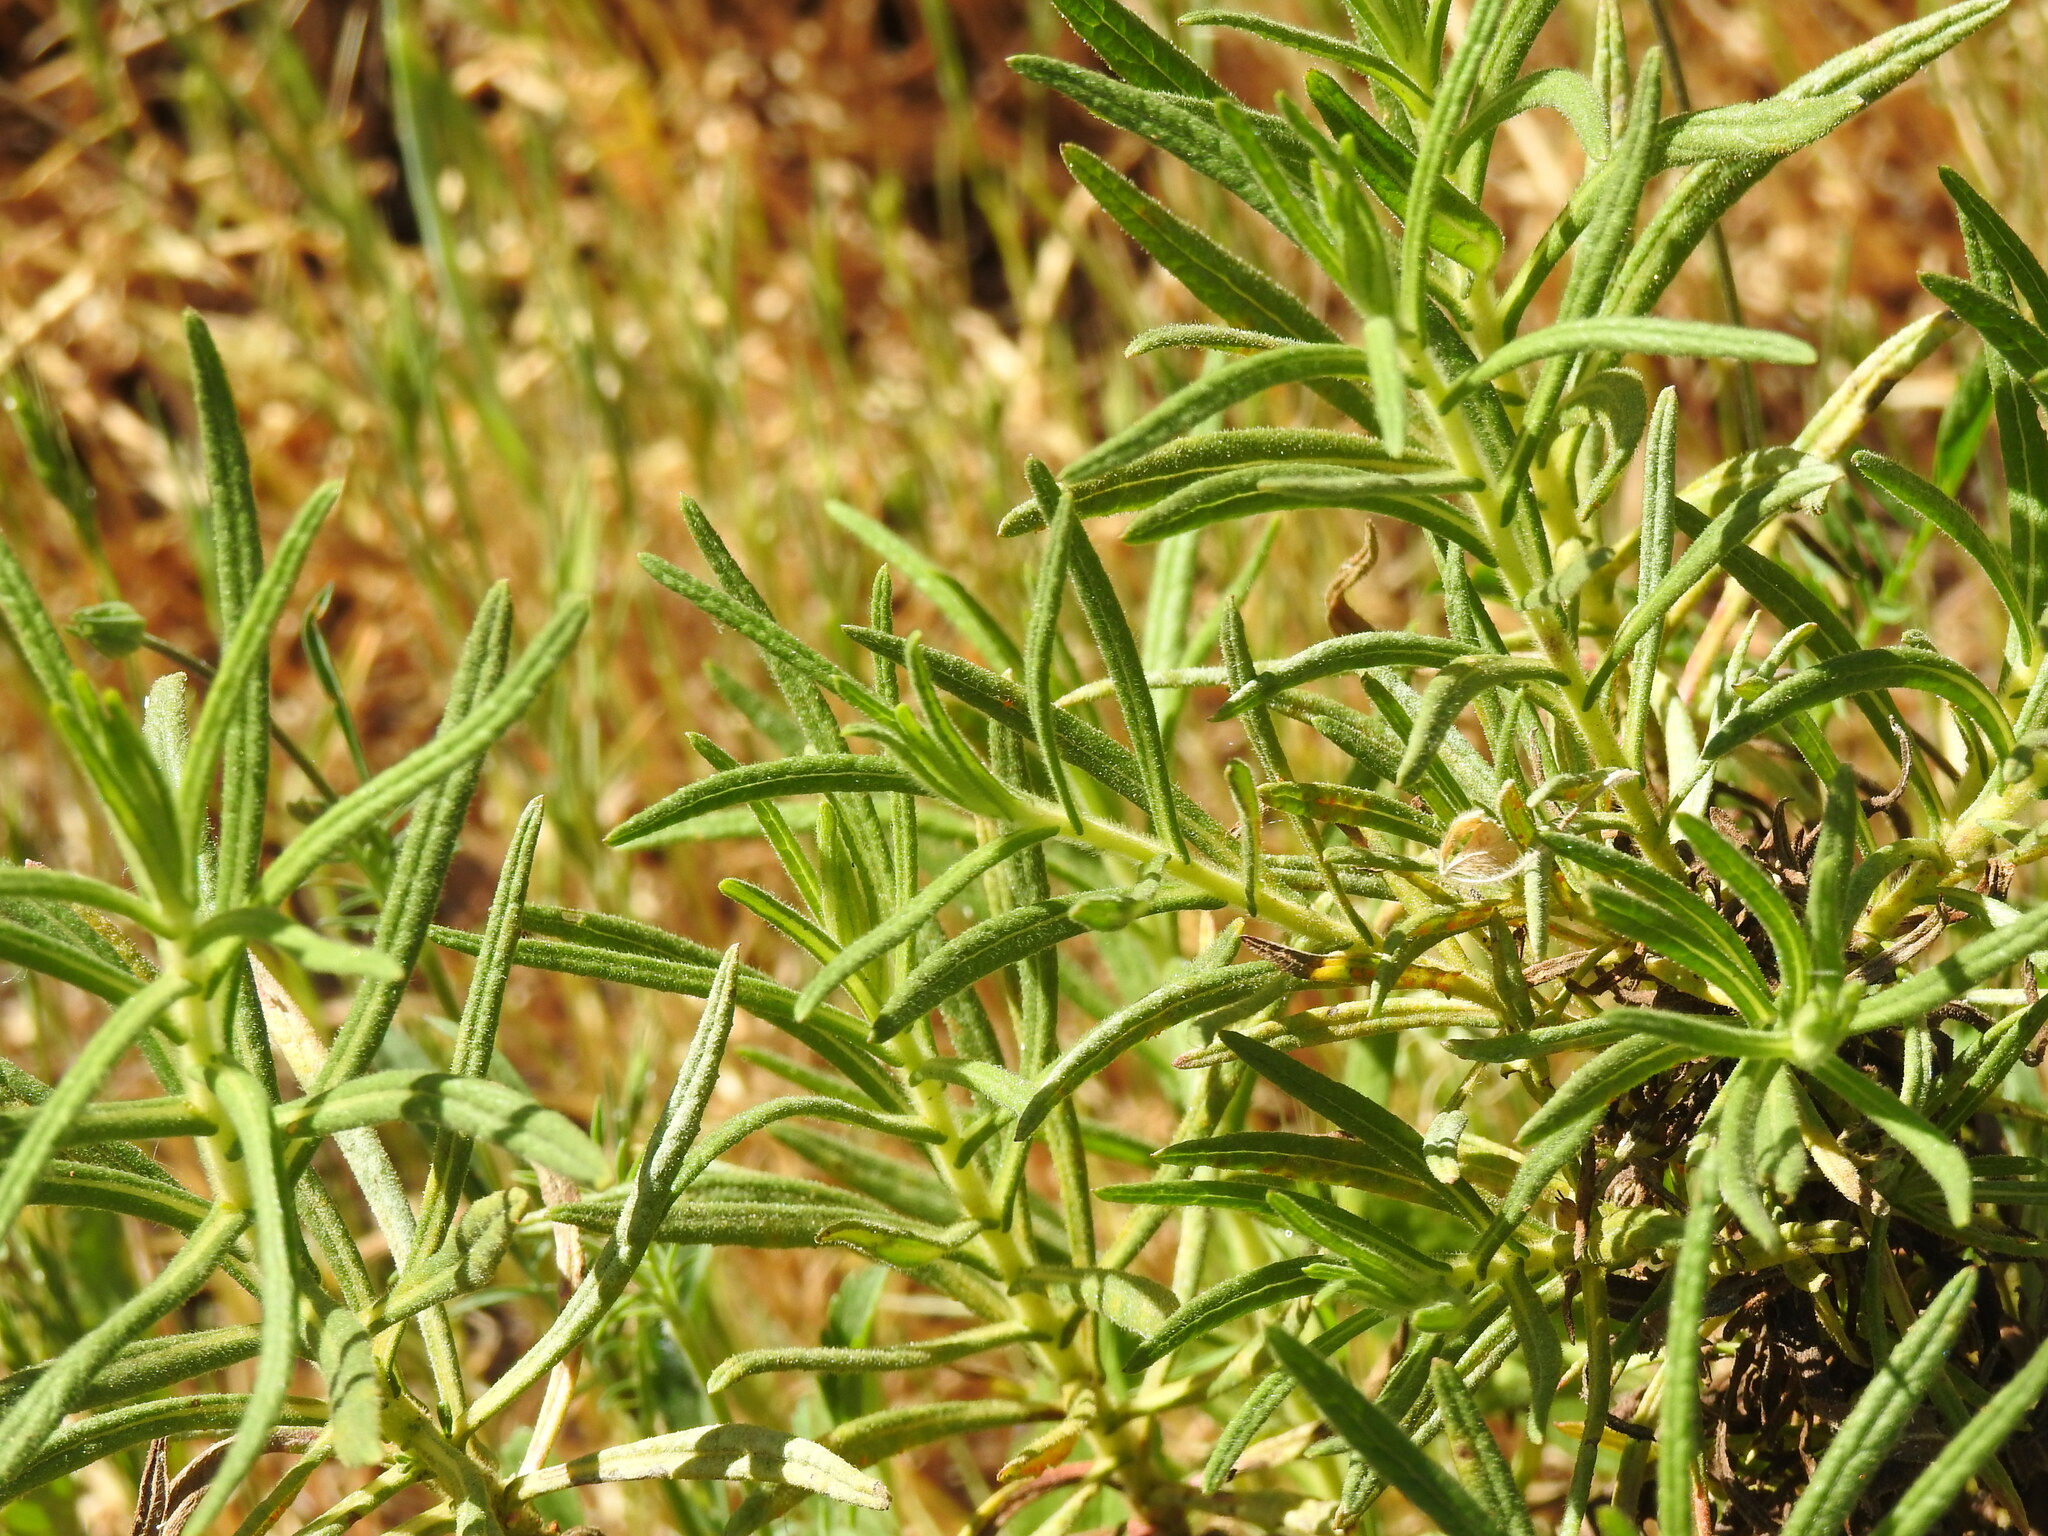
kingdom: Plantae
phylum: Tracheophyta
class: Magnoliopsida
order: Asterales
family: Asteraceae
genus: Dittrichia
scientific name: Dittrichia viscosa
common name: Woody fleabane
